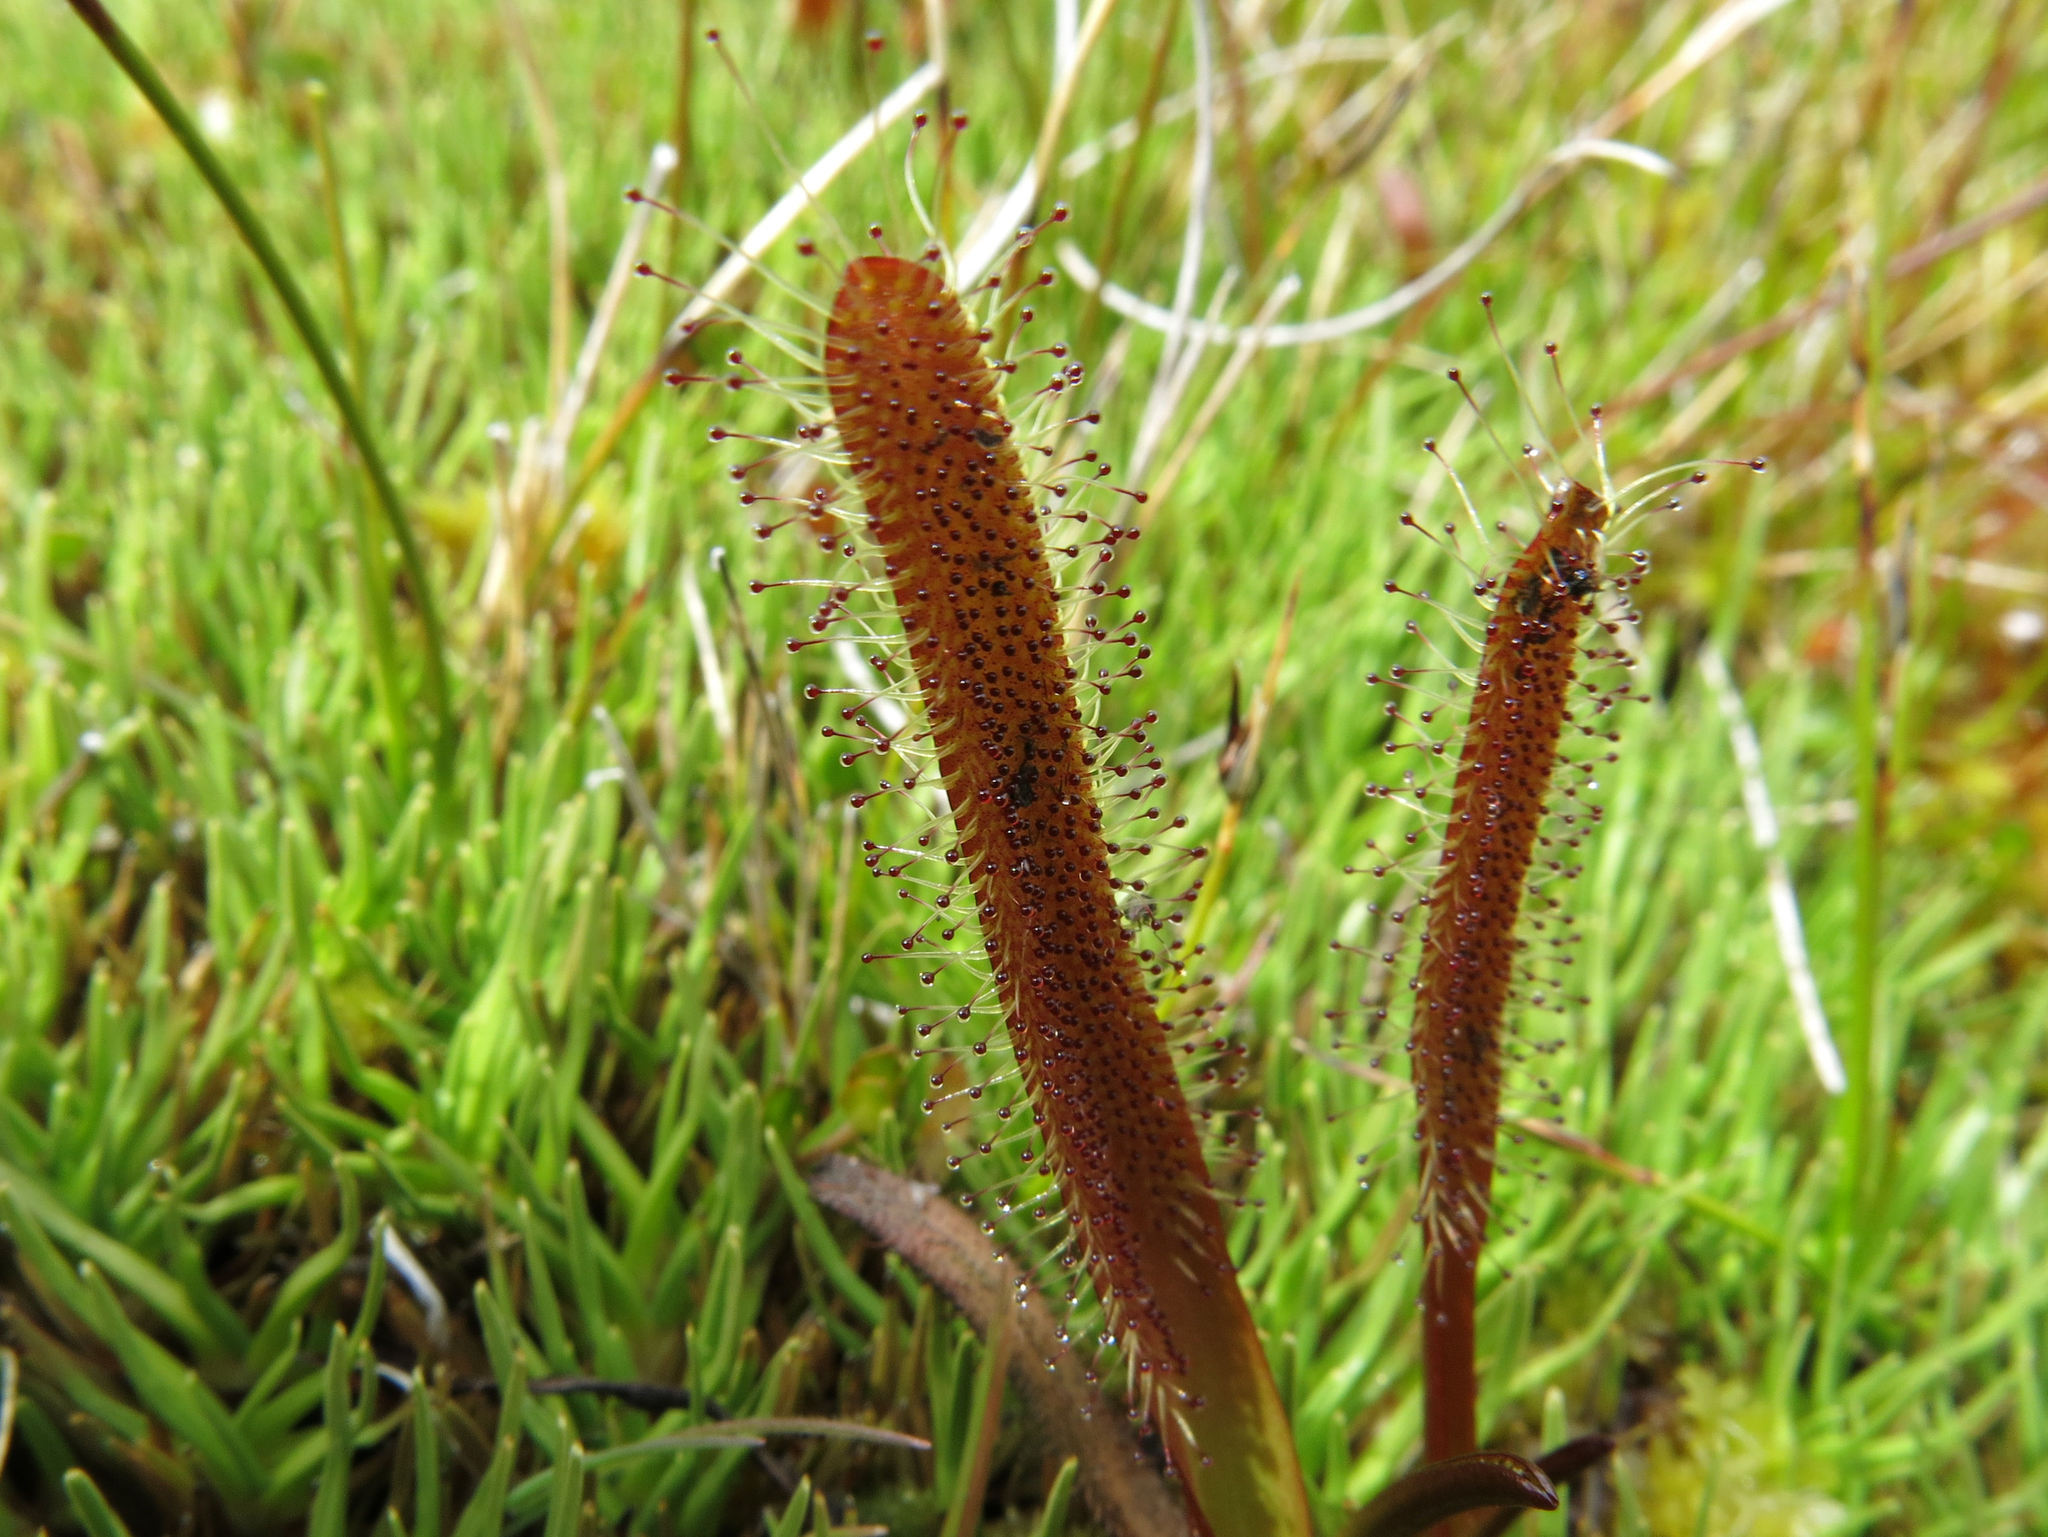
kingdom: Plantae
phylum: Tracheophyta
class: Magnoliopsida
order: Caryophyllales
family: Droseraceae
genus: Drosera
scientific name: Drosera arcturi
